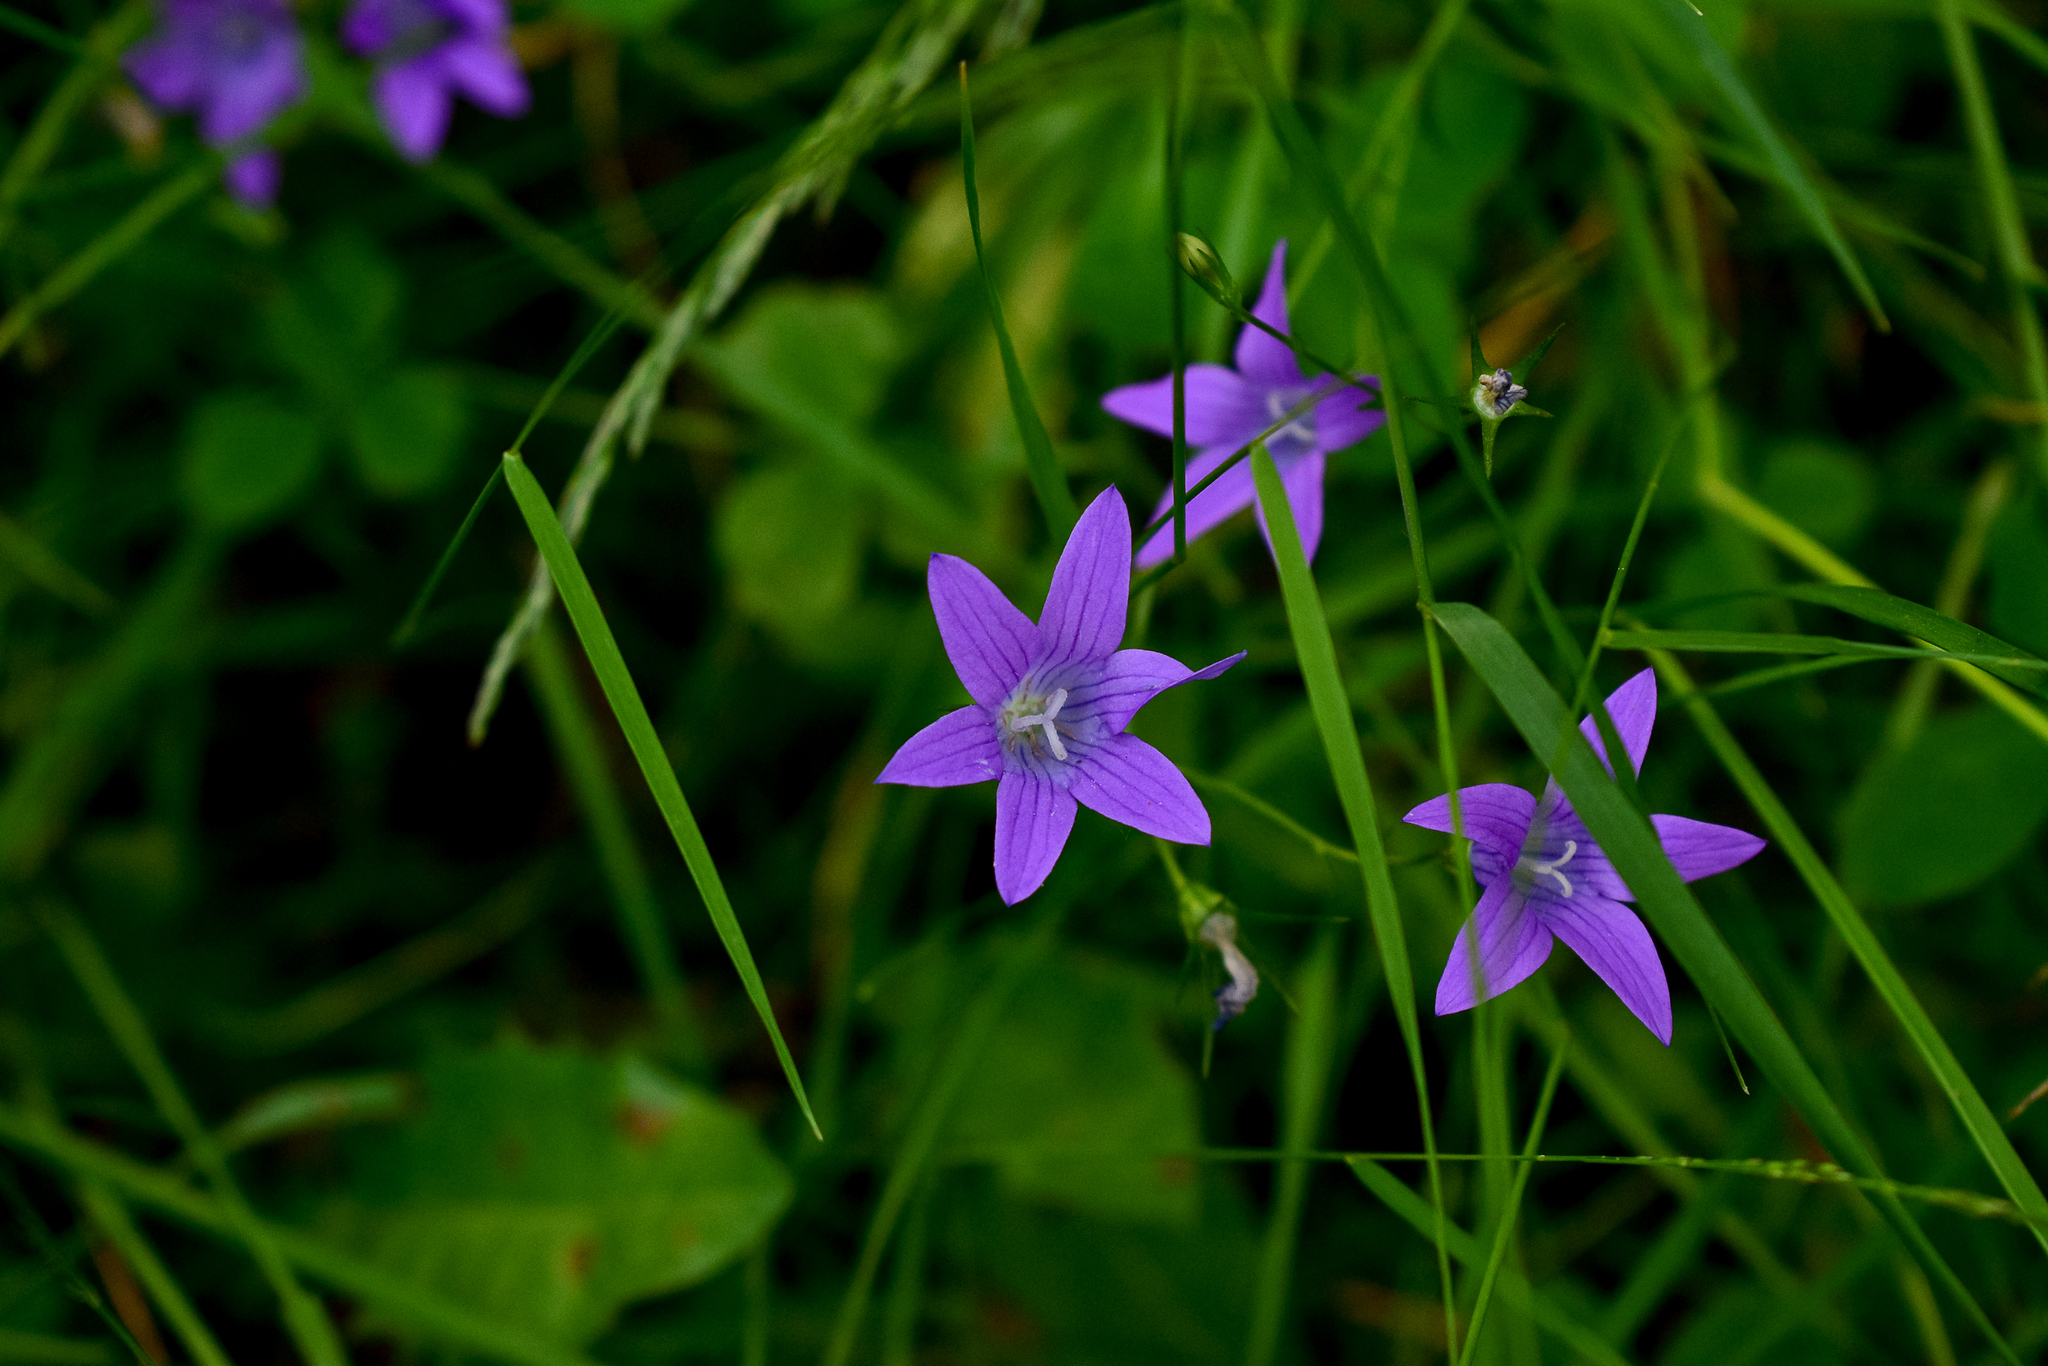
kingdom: Plantae
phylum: Tracheophyta
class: Magnoliopsida
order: Asterales
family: Campanulaceae
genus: Campanula
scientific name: Campanula patula
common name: Spreading bellflower
